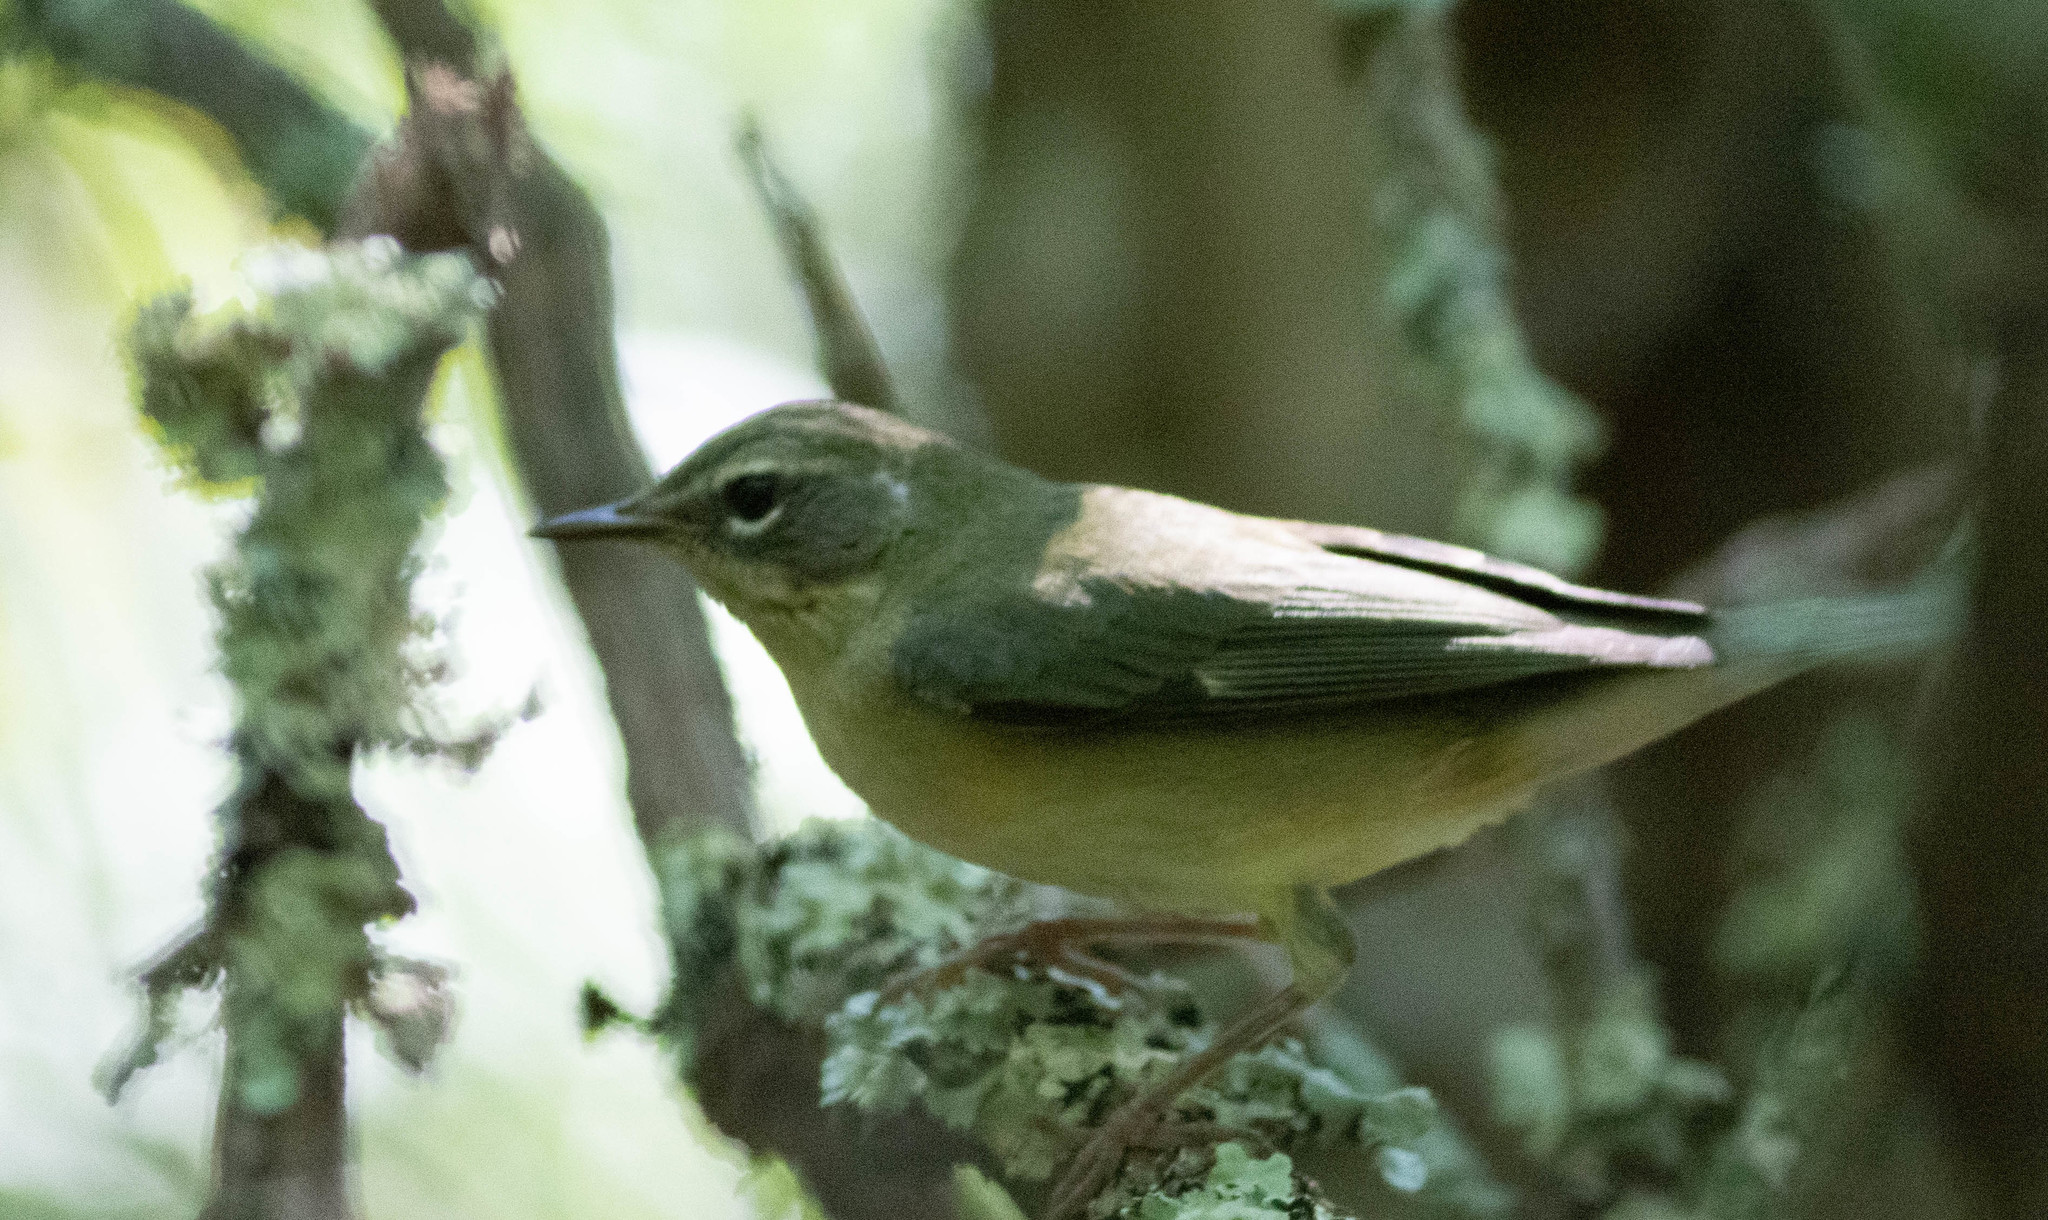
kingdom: Animalia
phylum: Chordata
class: Aves
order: Passeriformes
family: Parulidae
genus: Setophaga
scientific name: Setophaga caerulescens
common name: Black-throated blue warbler
